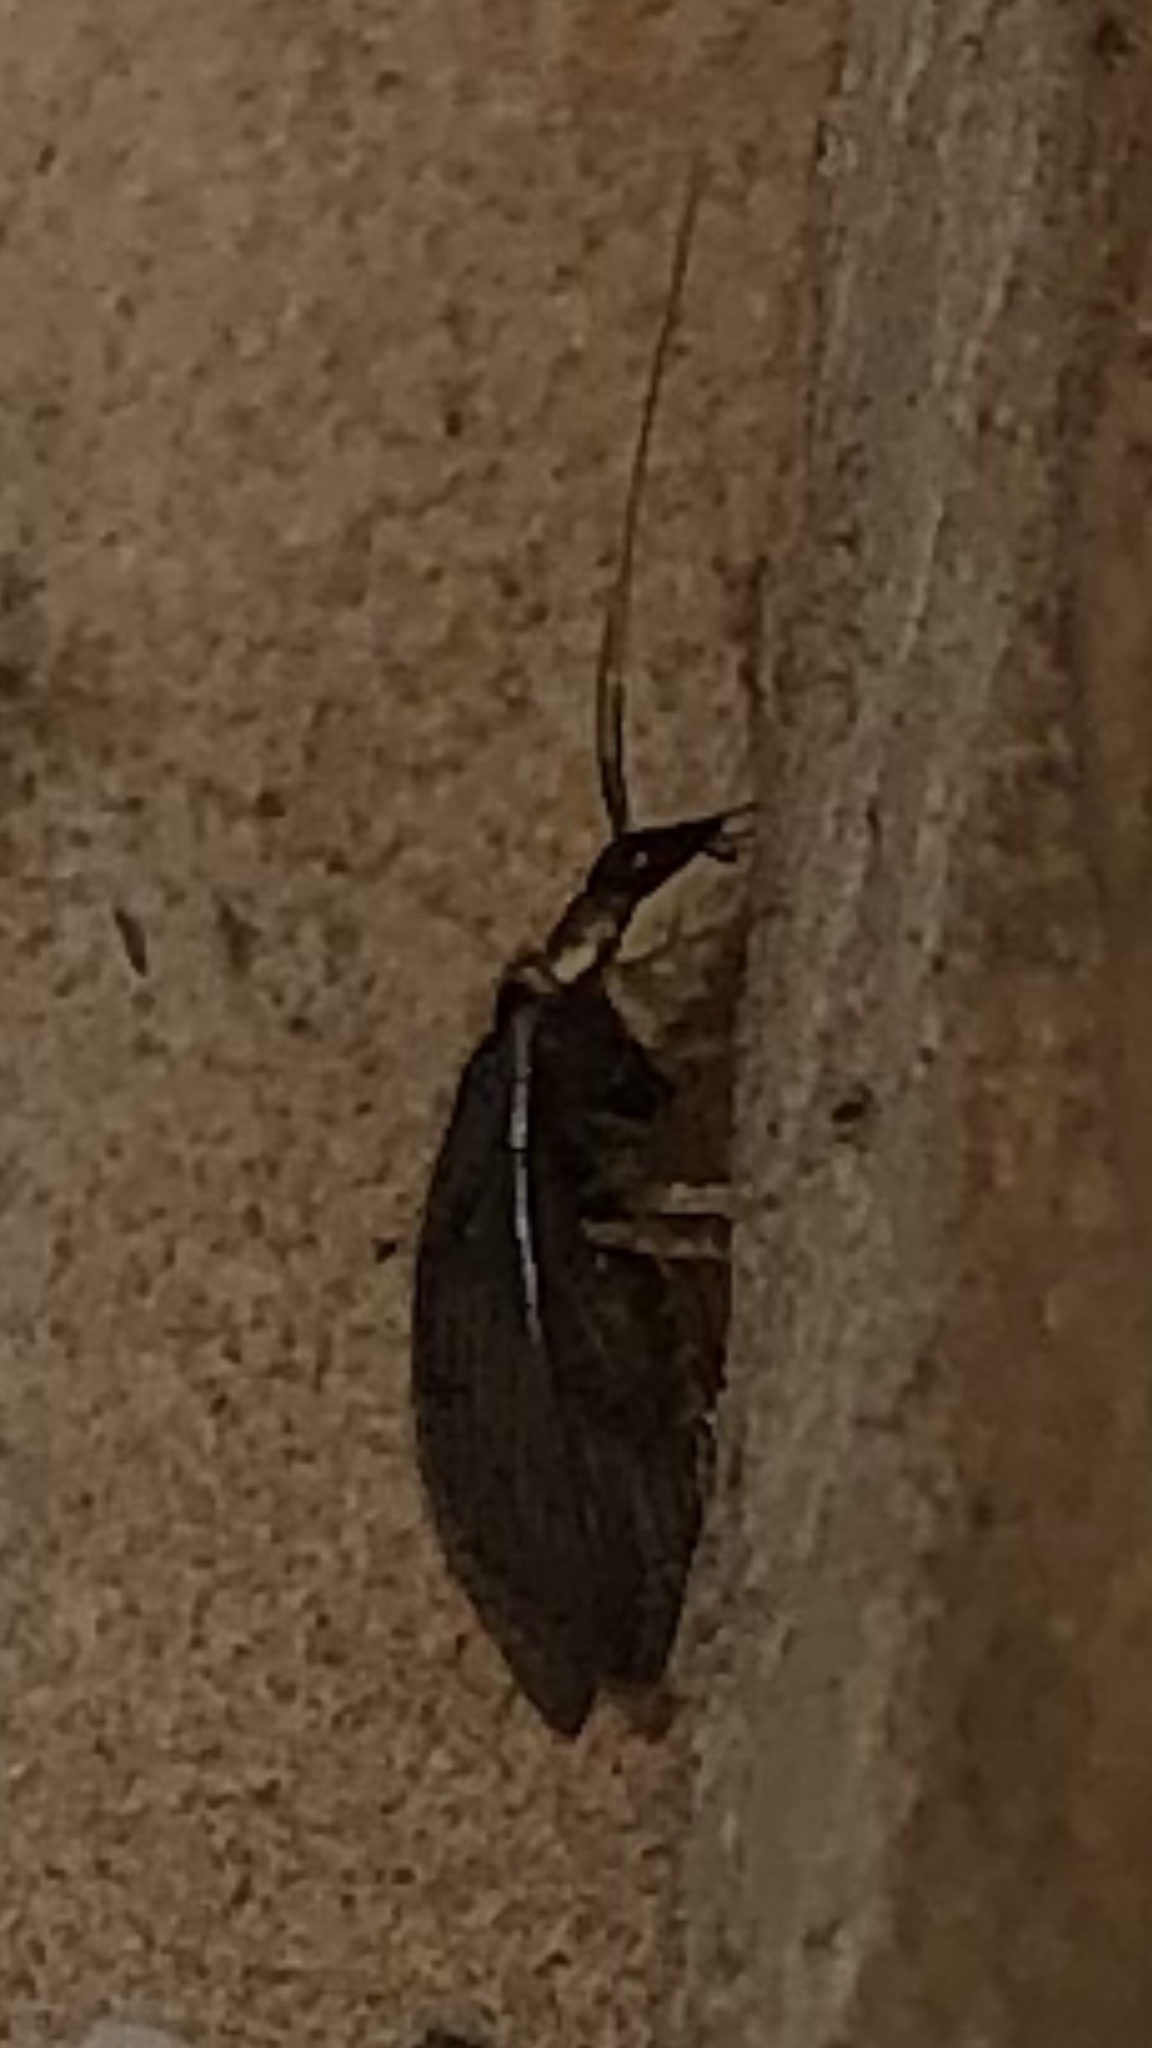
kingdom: Animalia
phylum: Arthropoda
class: Insecta
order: Neuroptera
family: Hemerobiidae
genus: Sympherobius
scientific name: Sympherobius occidentalis
